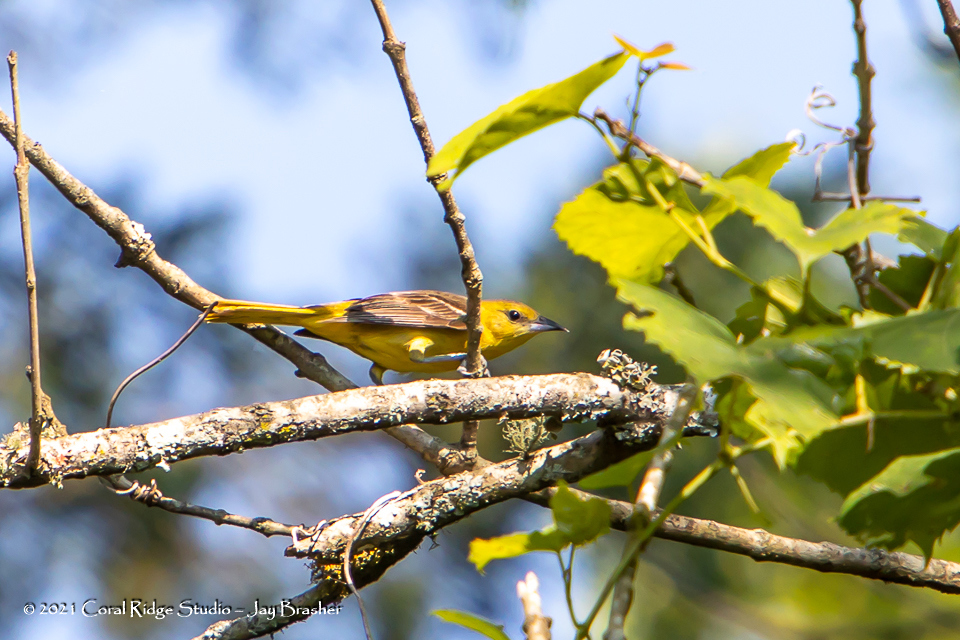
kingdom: Animalia
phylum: Chordata
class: Aves
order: Passeriformes
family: Icteridae
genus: Icterus
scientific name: Icterus spurius
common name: Orchard oriole
